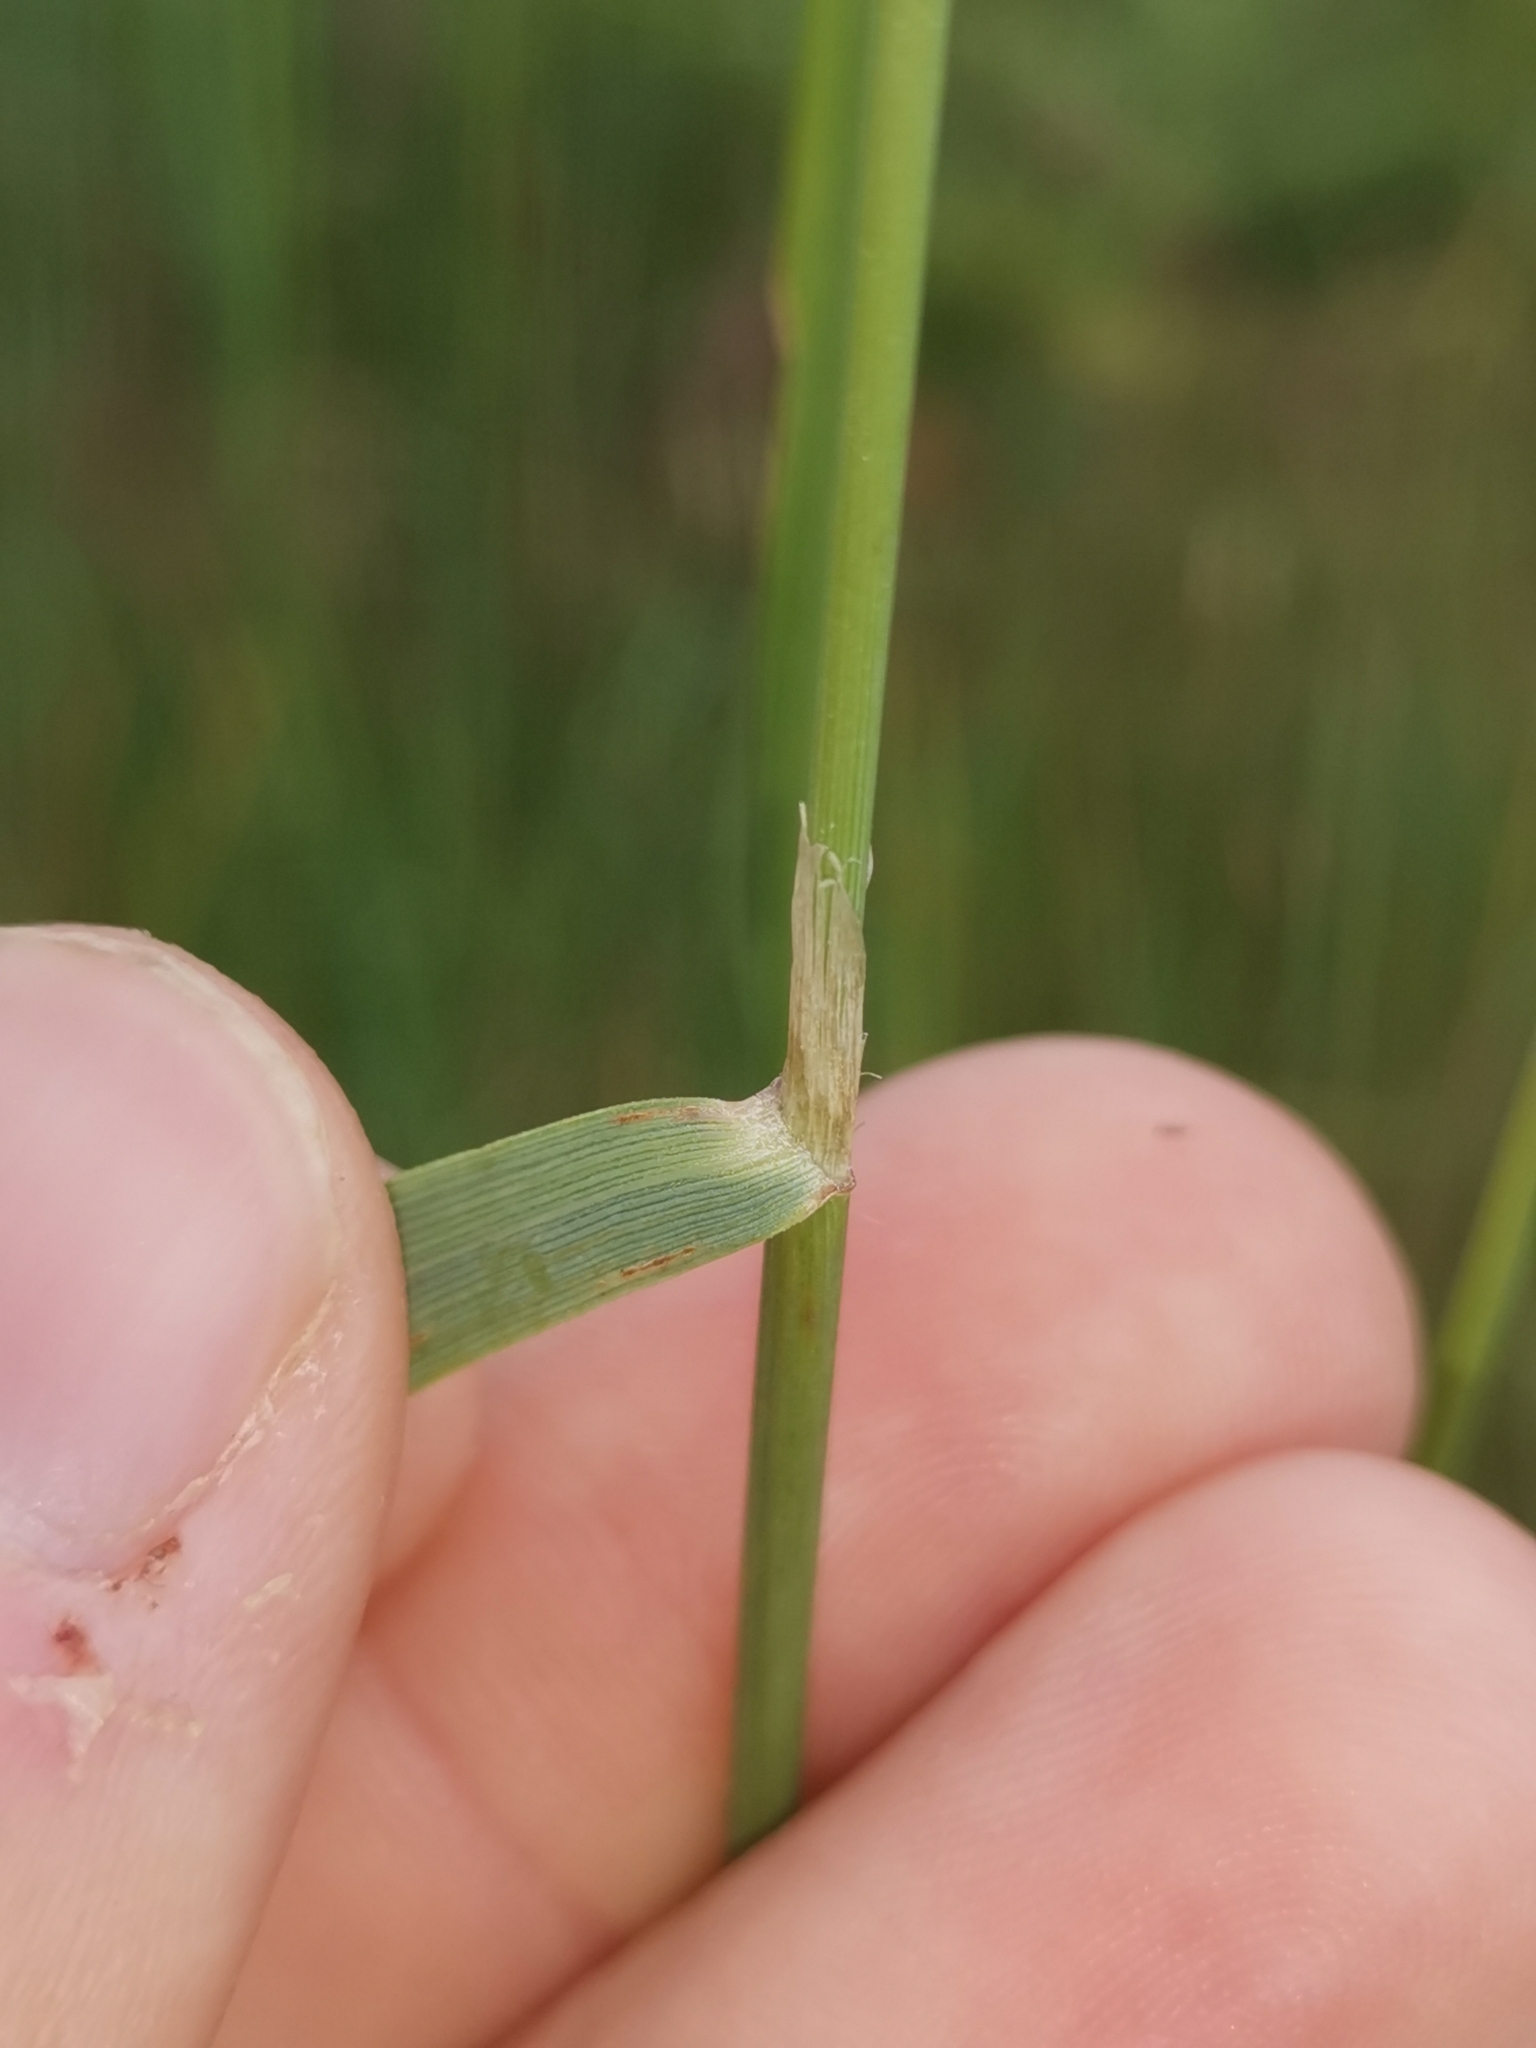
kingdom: Plantae
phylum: Tracheophyta
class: Liliopsida
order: Poales
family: Poaceae
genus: Calamagrostis
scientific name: Calamagrostis epigejos
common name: Wood small-reed
